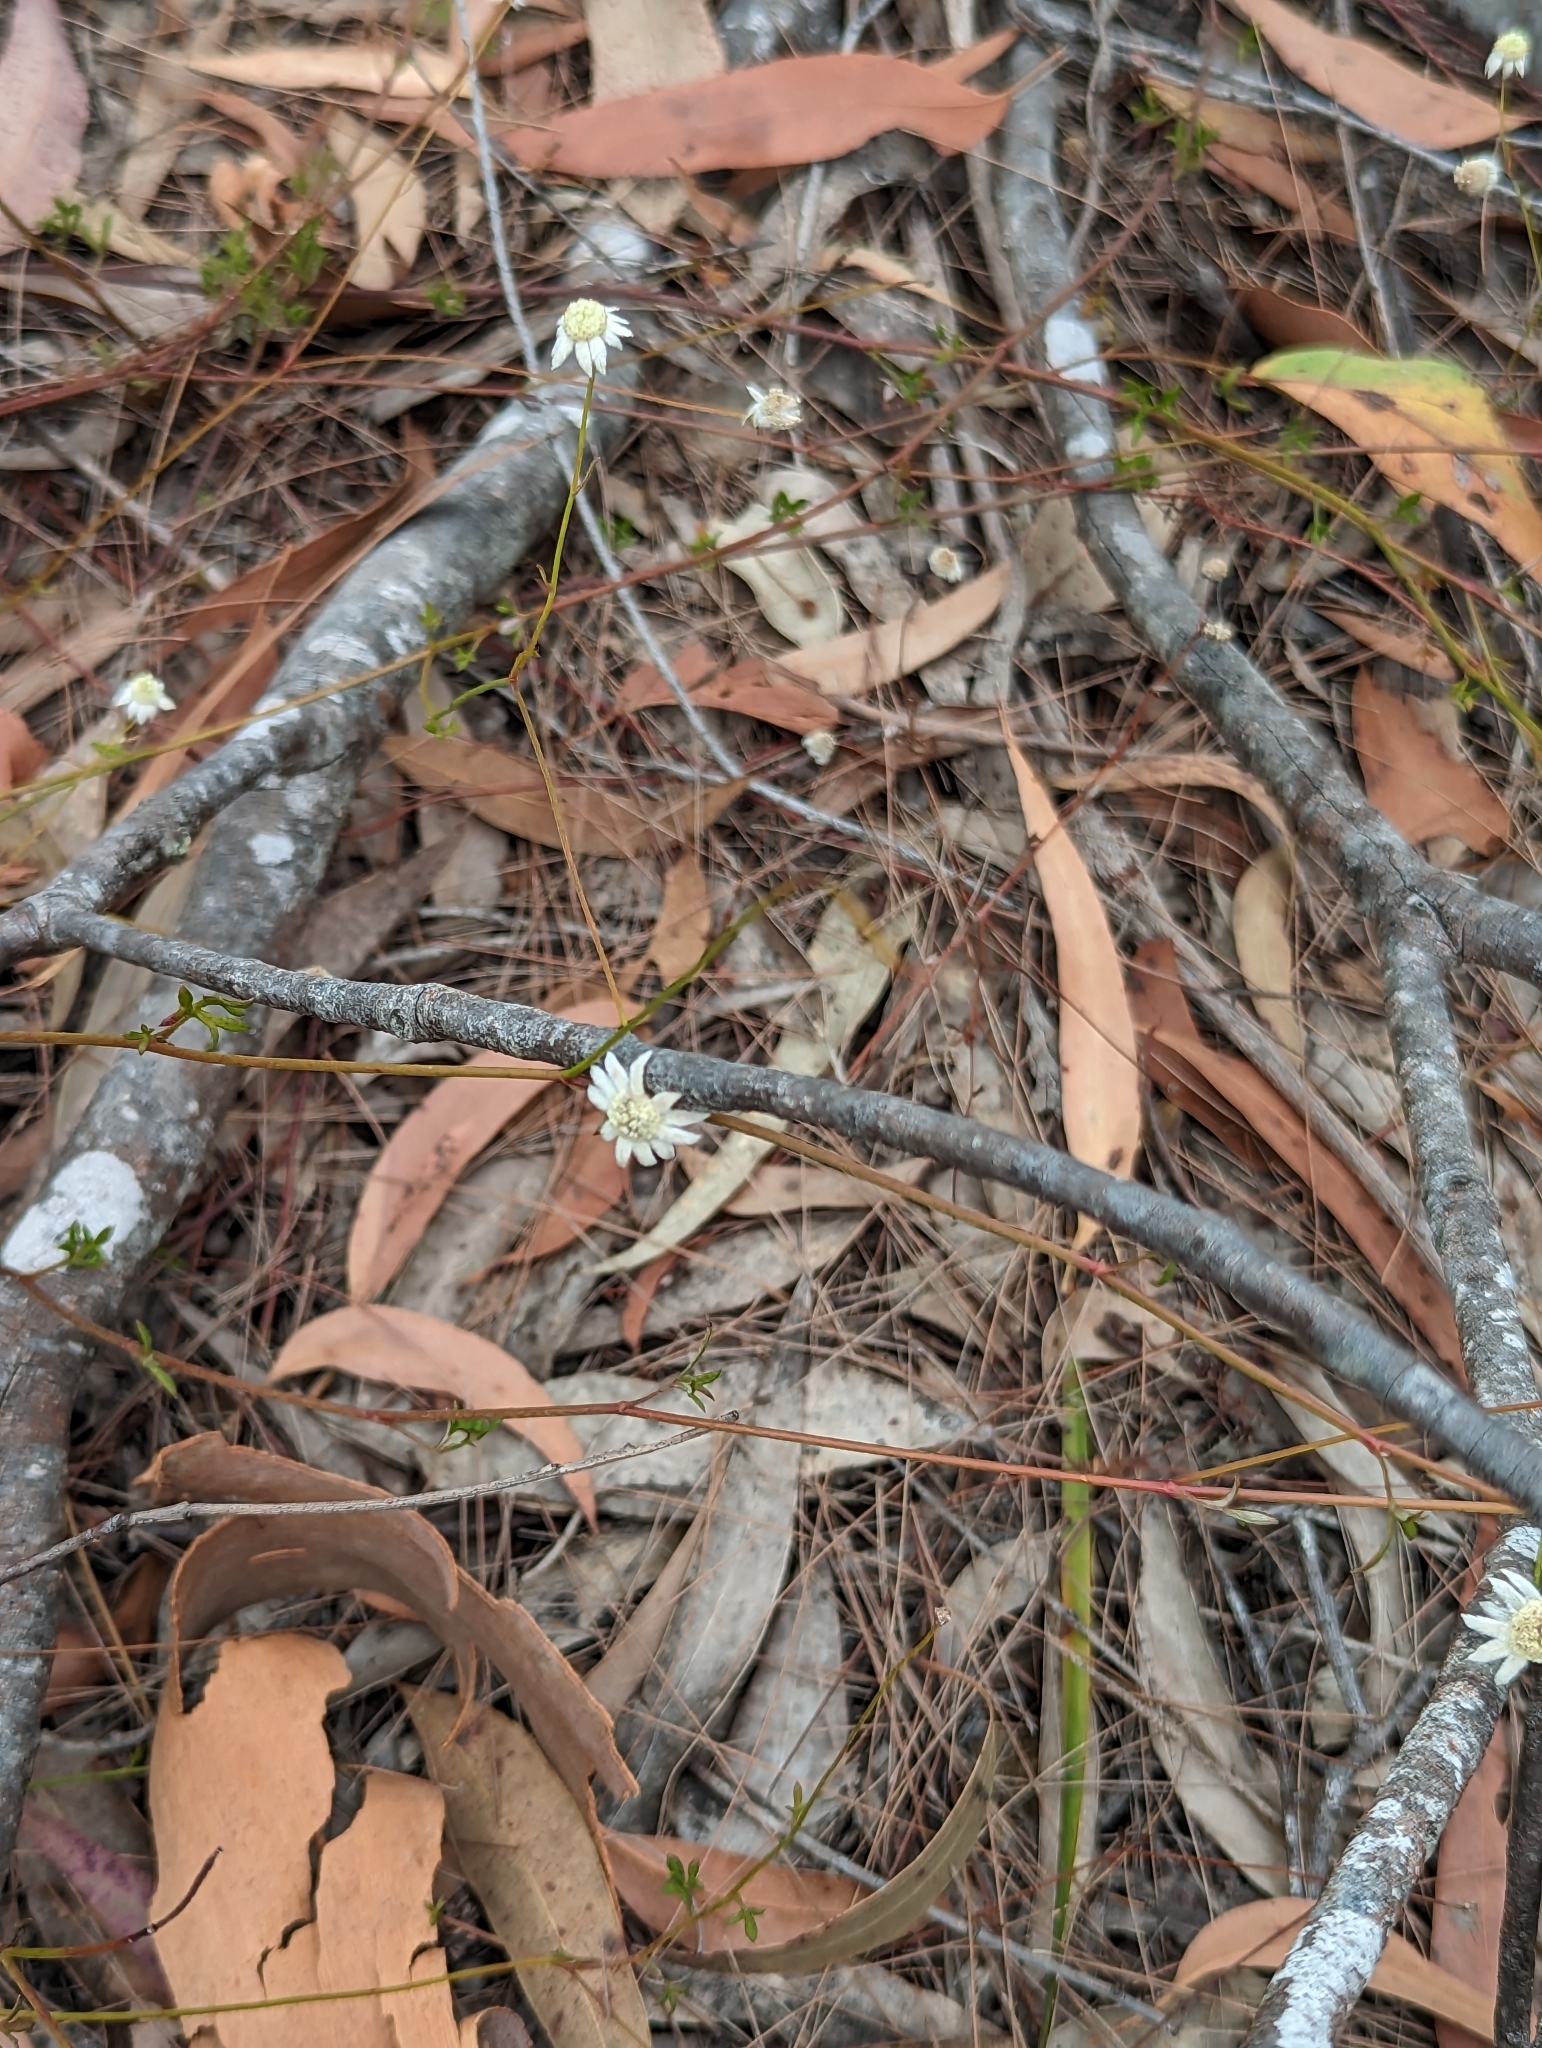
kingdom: Plantae
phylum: Tracheophyta
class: Magnoliopsida
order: Apiales
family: Apiaceae
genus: Actinotus
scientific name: Actinotus minor
